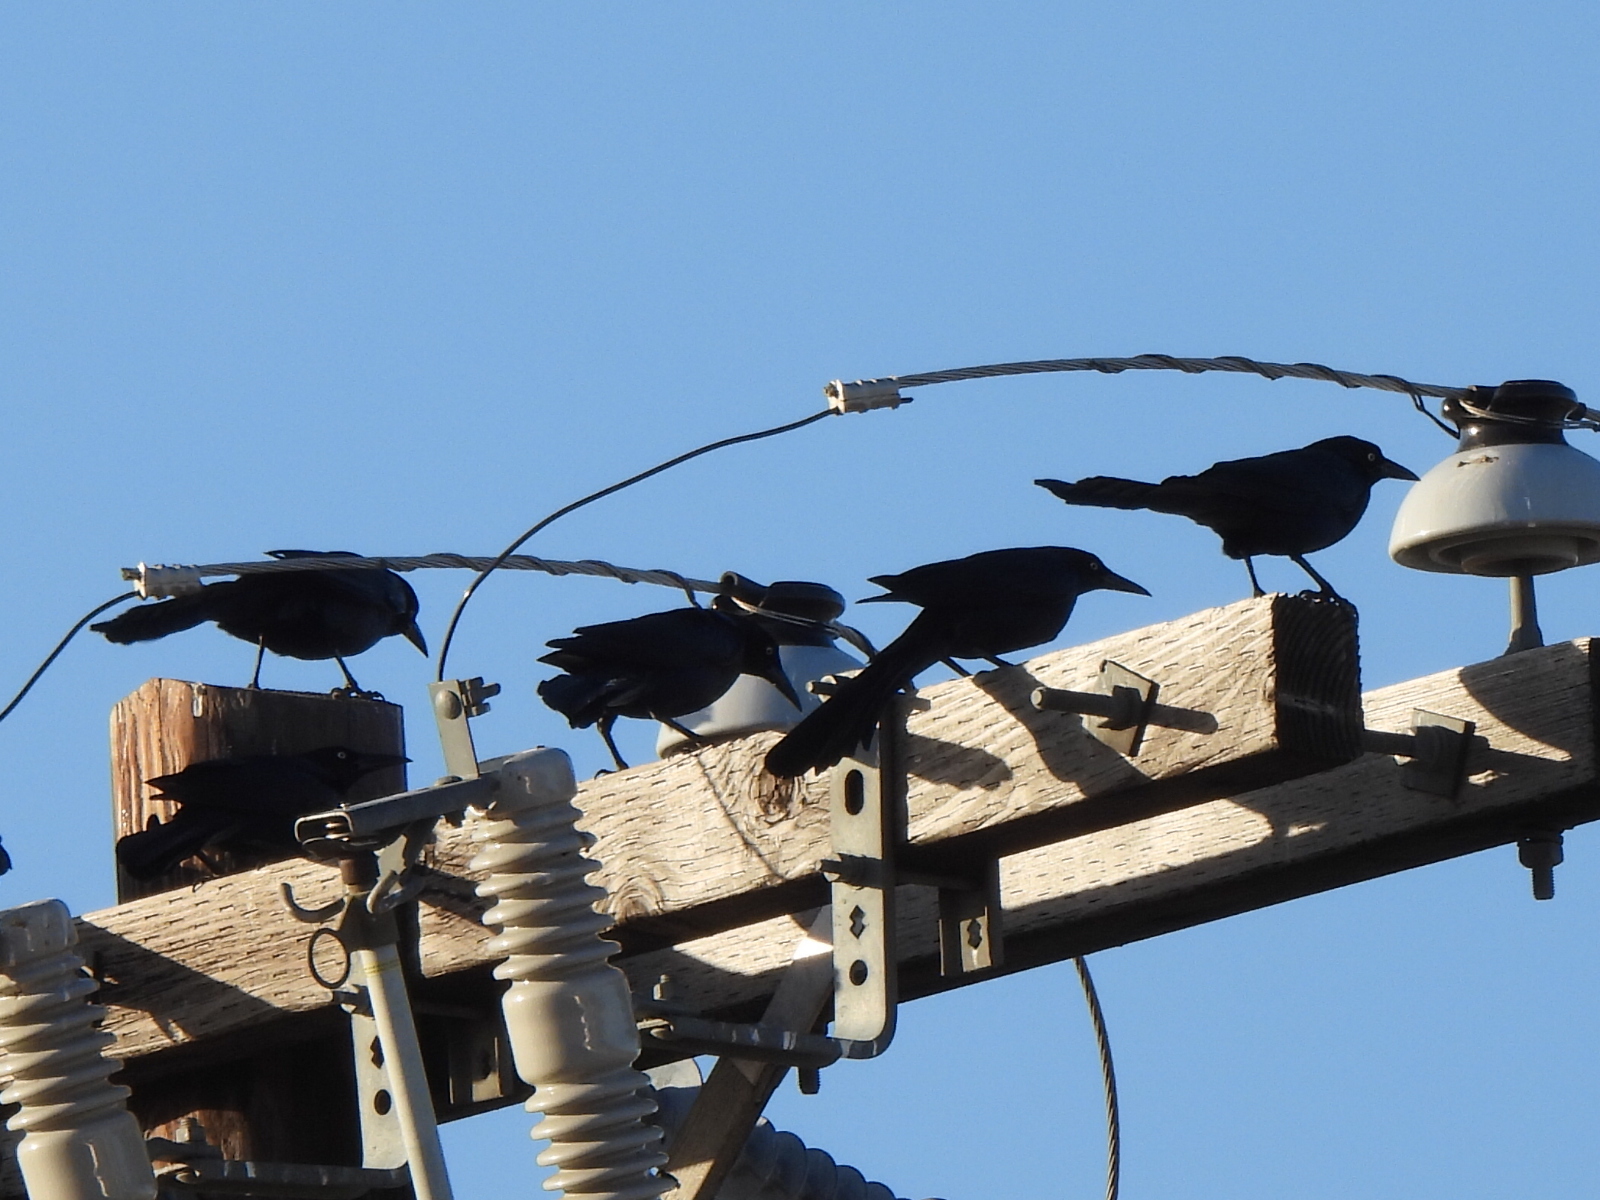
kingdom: Animalia
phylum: Chordata
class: Aves
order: Passeriformes
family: Icteridae
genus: Quiscalus
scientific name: Quiscalus mexicanus
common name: Great-tailed grackle
